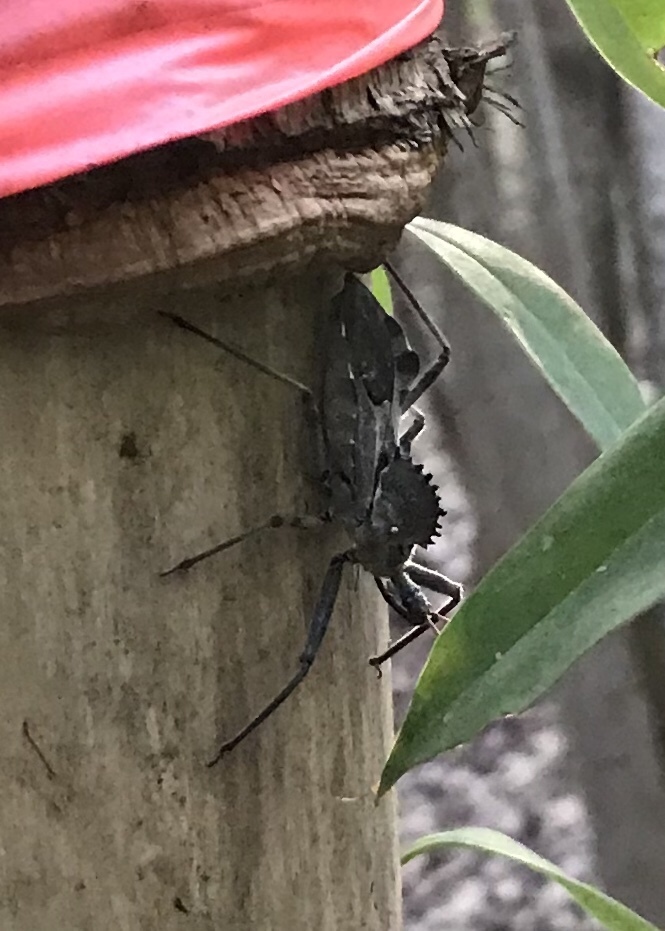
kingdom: Animalia
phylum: Arthropoda
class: Insecta
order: Hemiptera
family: Reduviidae
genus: Arilus
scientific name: Arilus cristatus
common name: North american wheel bug
